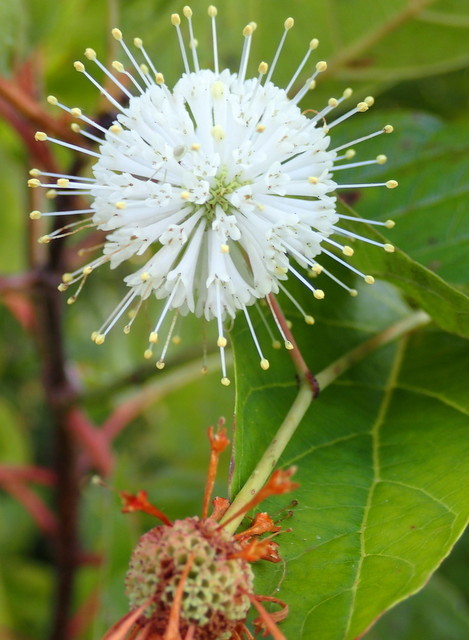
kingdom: Plantae
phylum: Tracheophyta
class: Magnoliopsida
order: Gentianales
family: Rubiaceae
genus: Cephalanthus
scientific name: Cephalanthus occidentalis
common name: Button-willow
